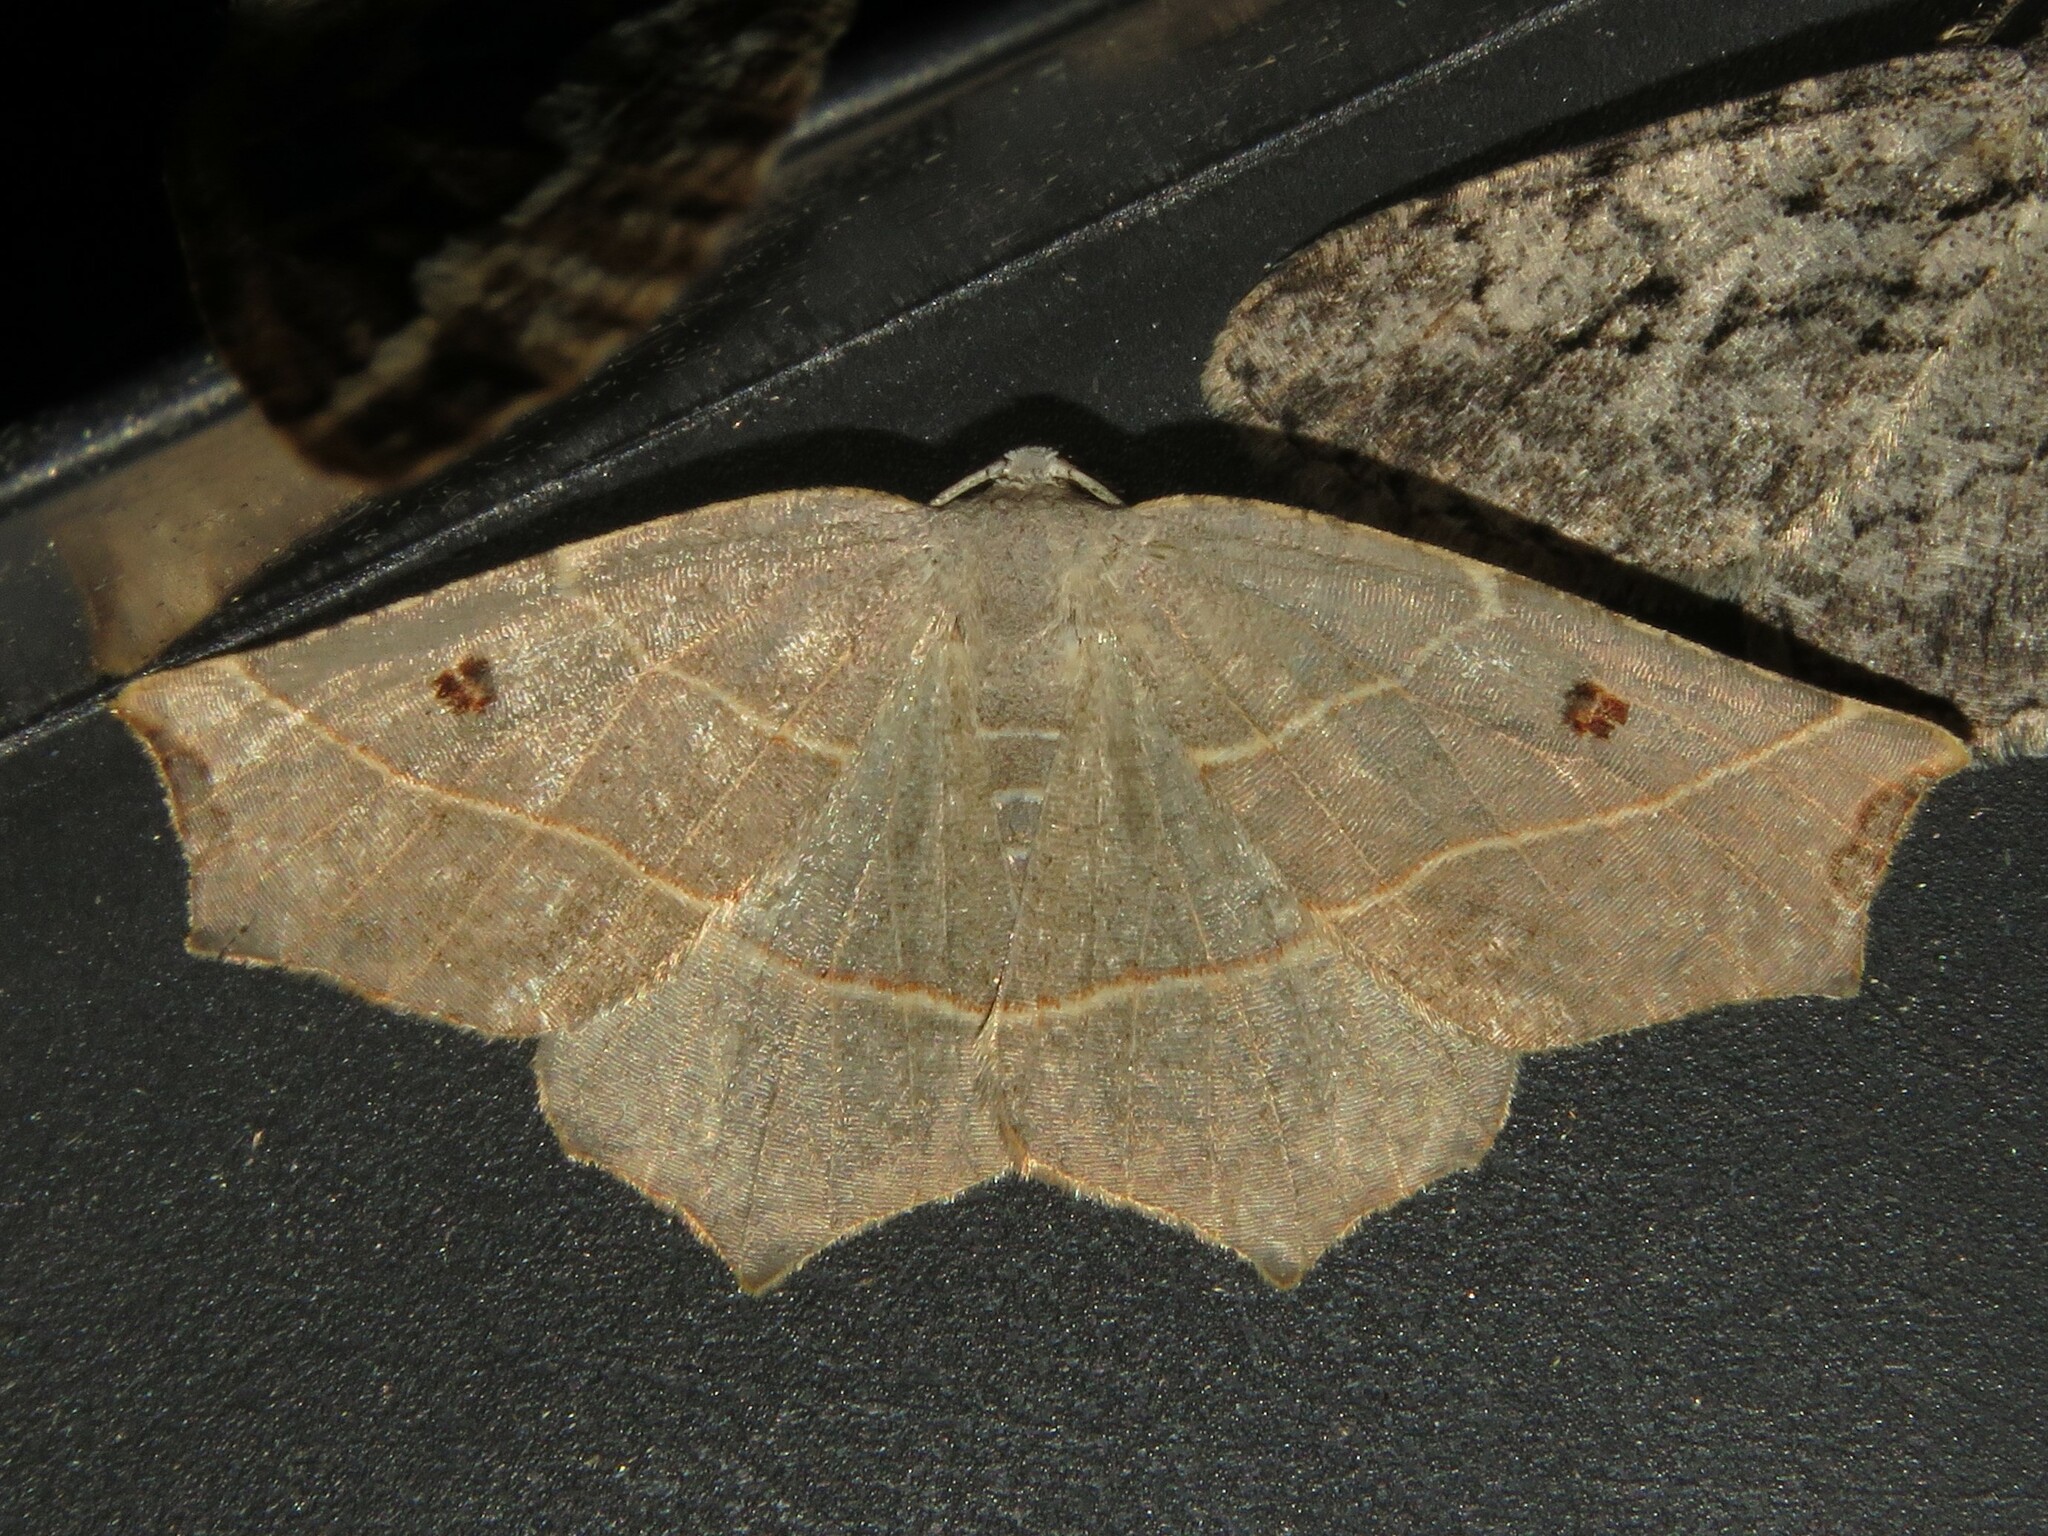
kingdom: Animalia
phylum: Arthropoda
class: Insecta
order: Lepidoptera
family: Geometridae
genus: Metanema
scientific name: Metanema inatomaria
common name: Pale metanema
